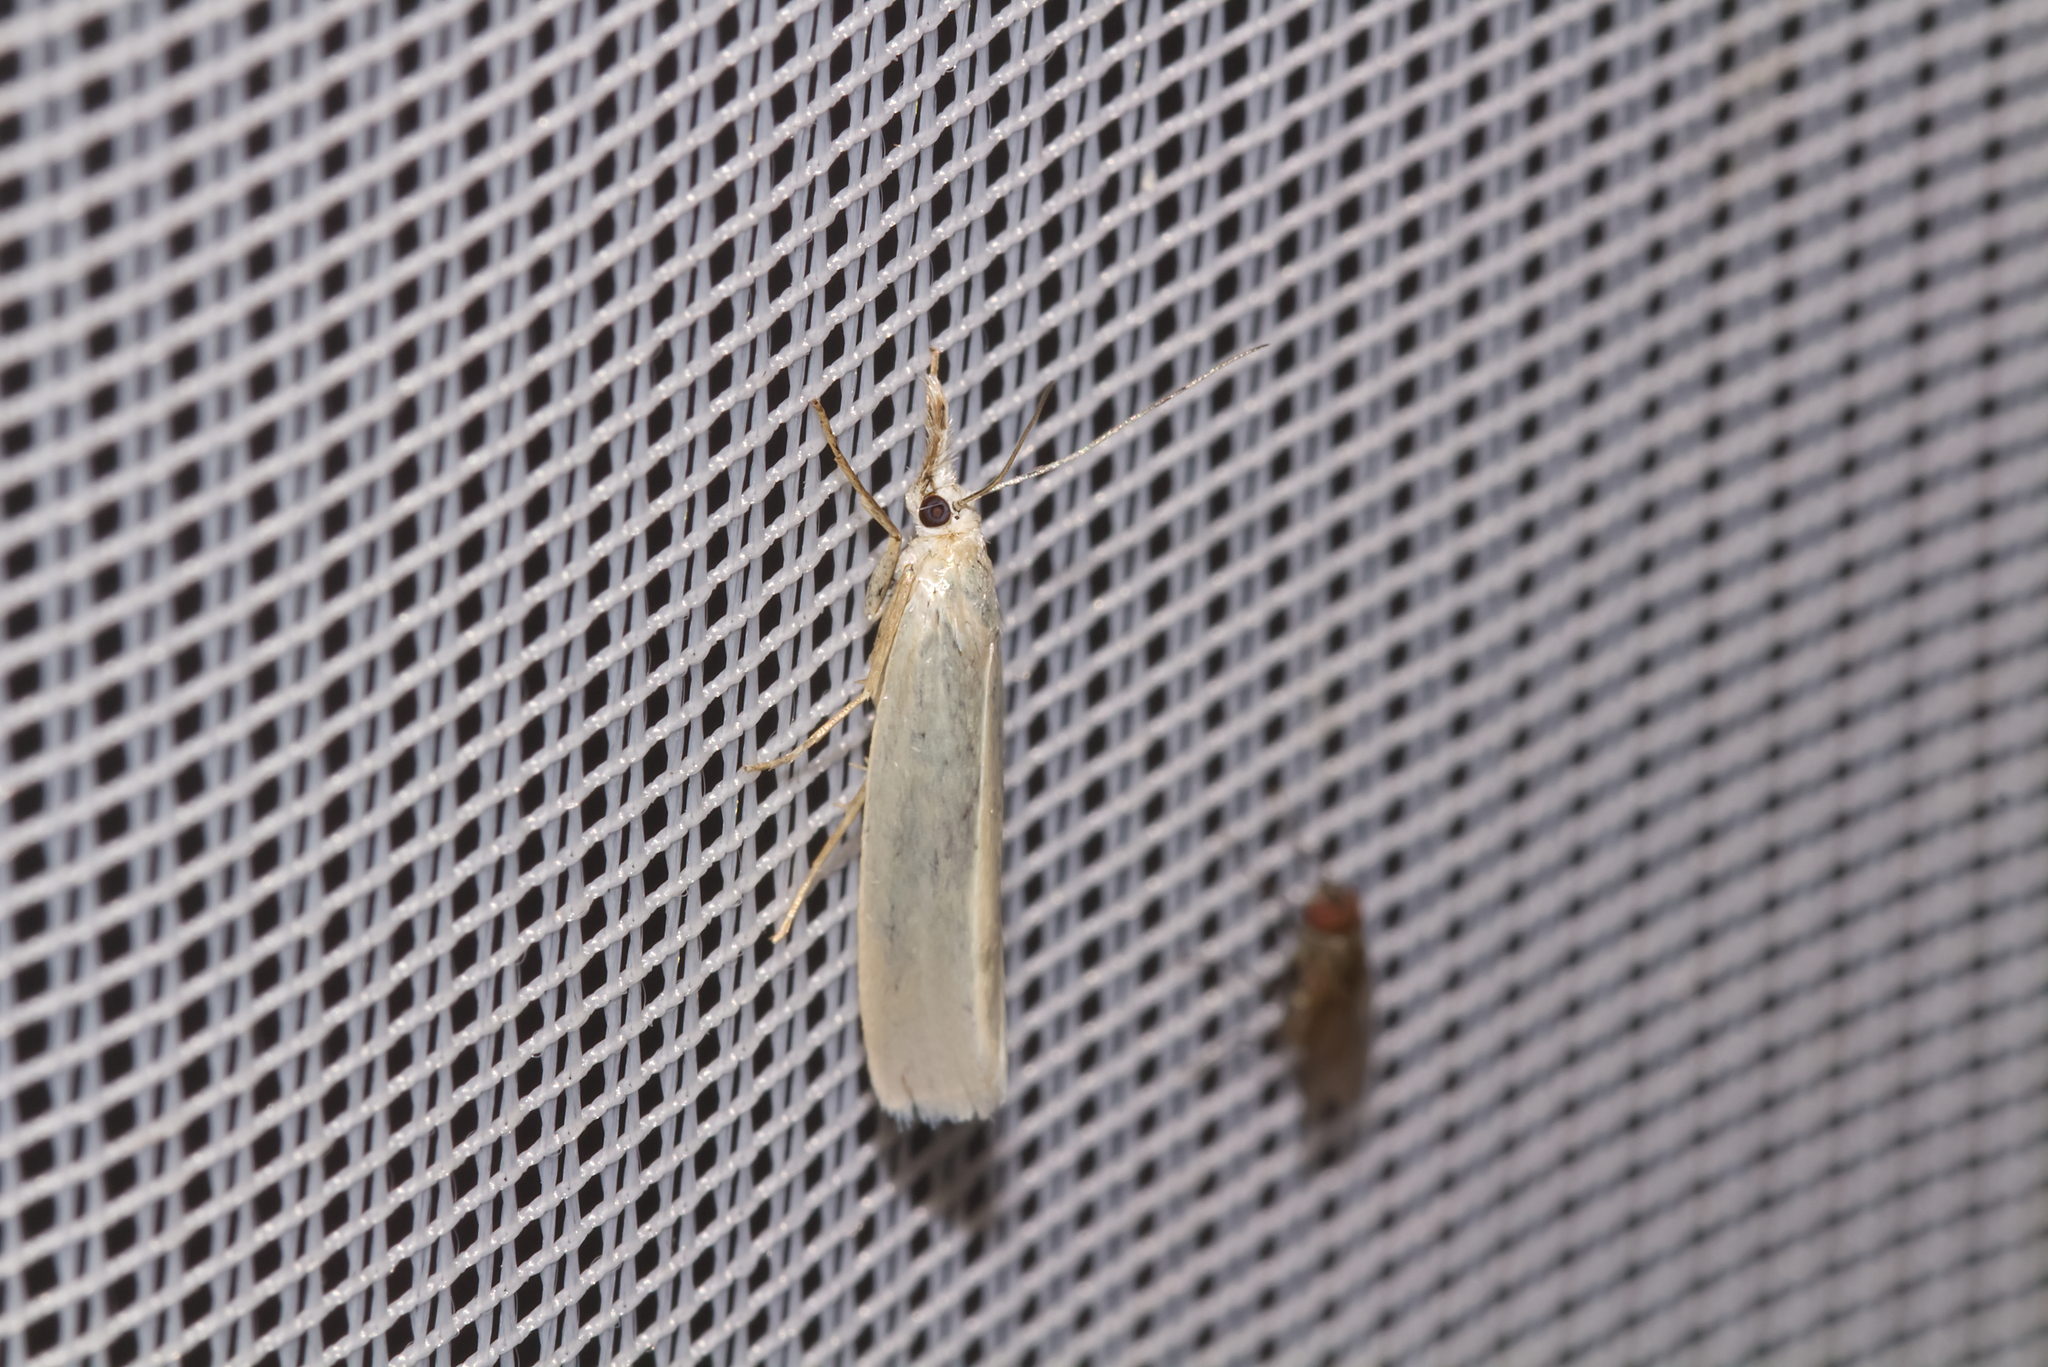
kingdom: Animalia
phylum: Arthropoda
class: Insecta
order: Lepidoptera
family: Crambidae
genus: Crambus
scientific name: Crambus perlellus
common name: Yellow satin veneer
